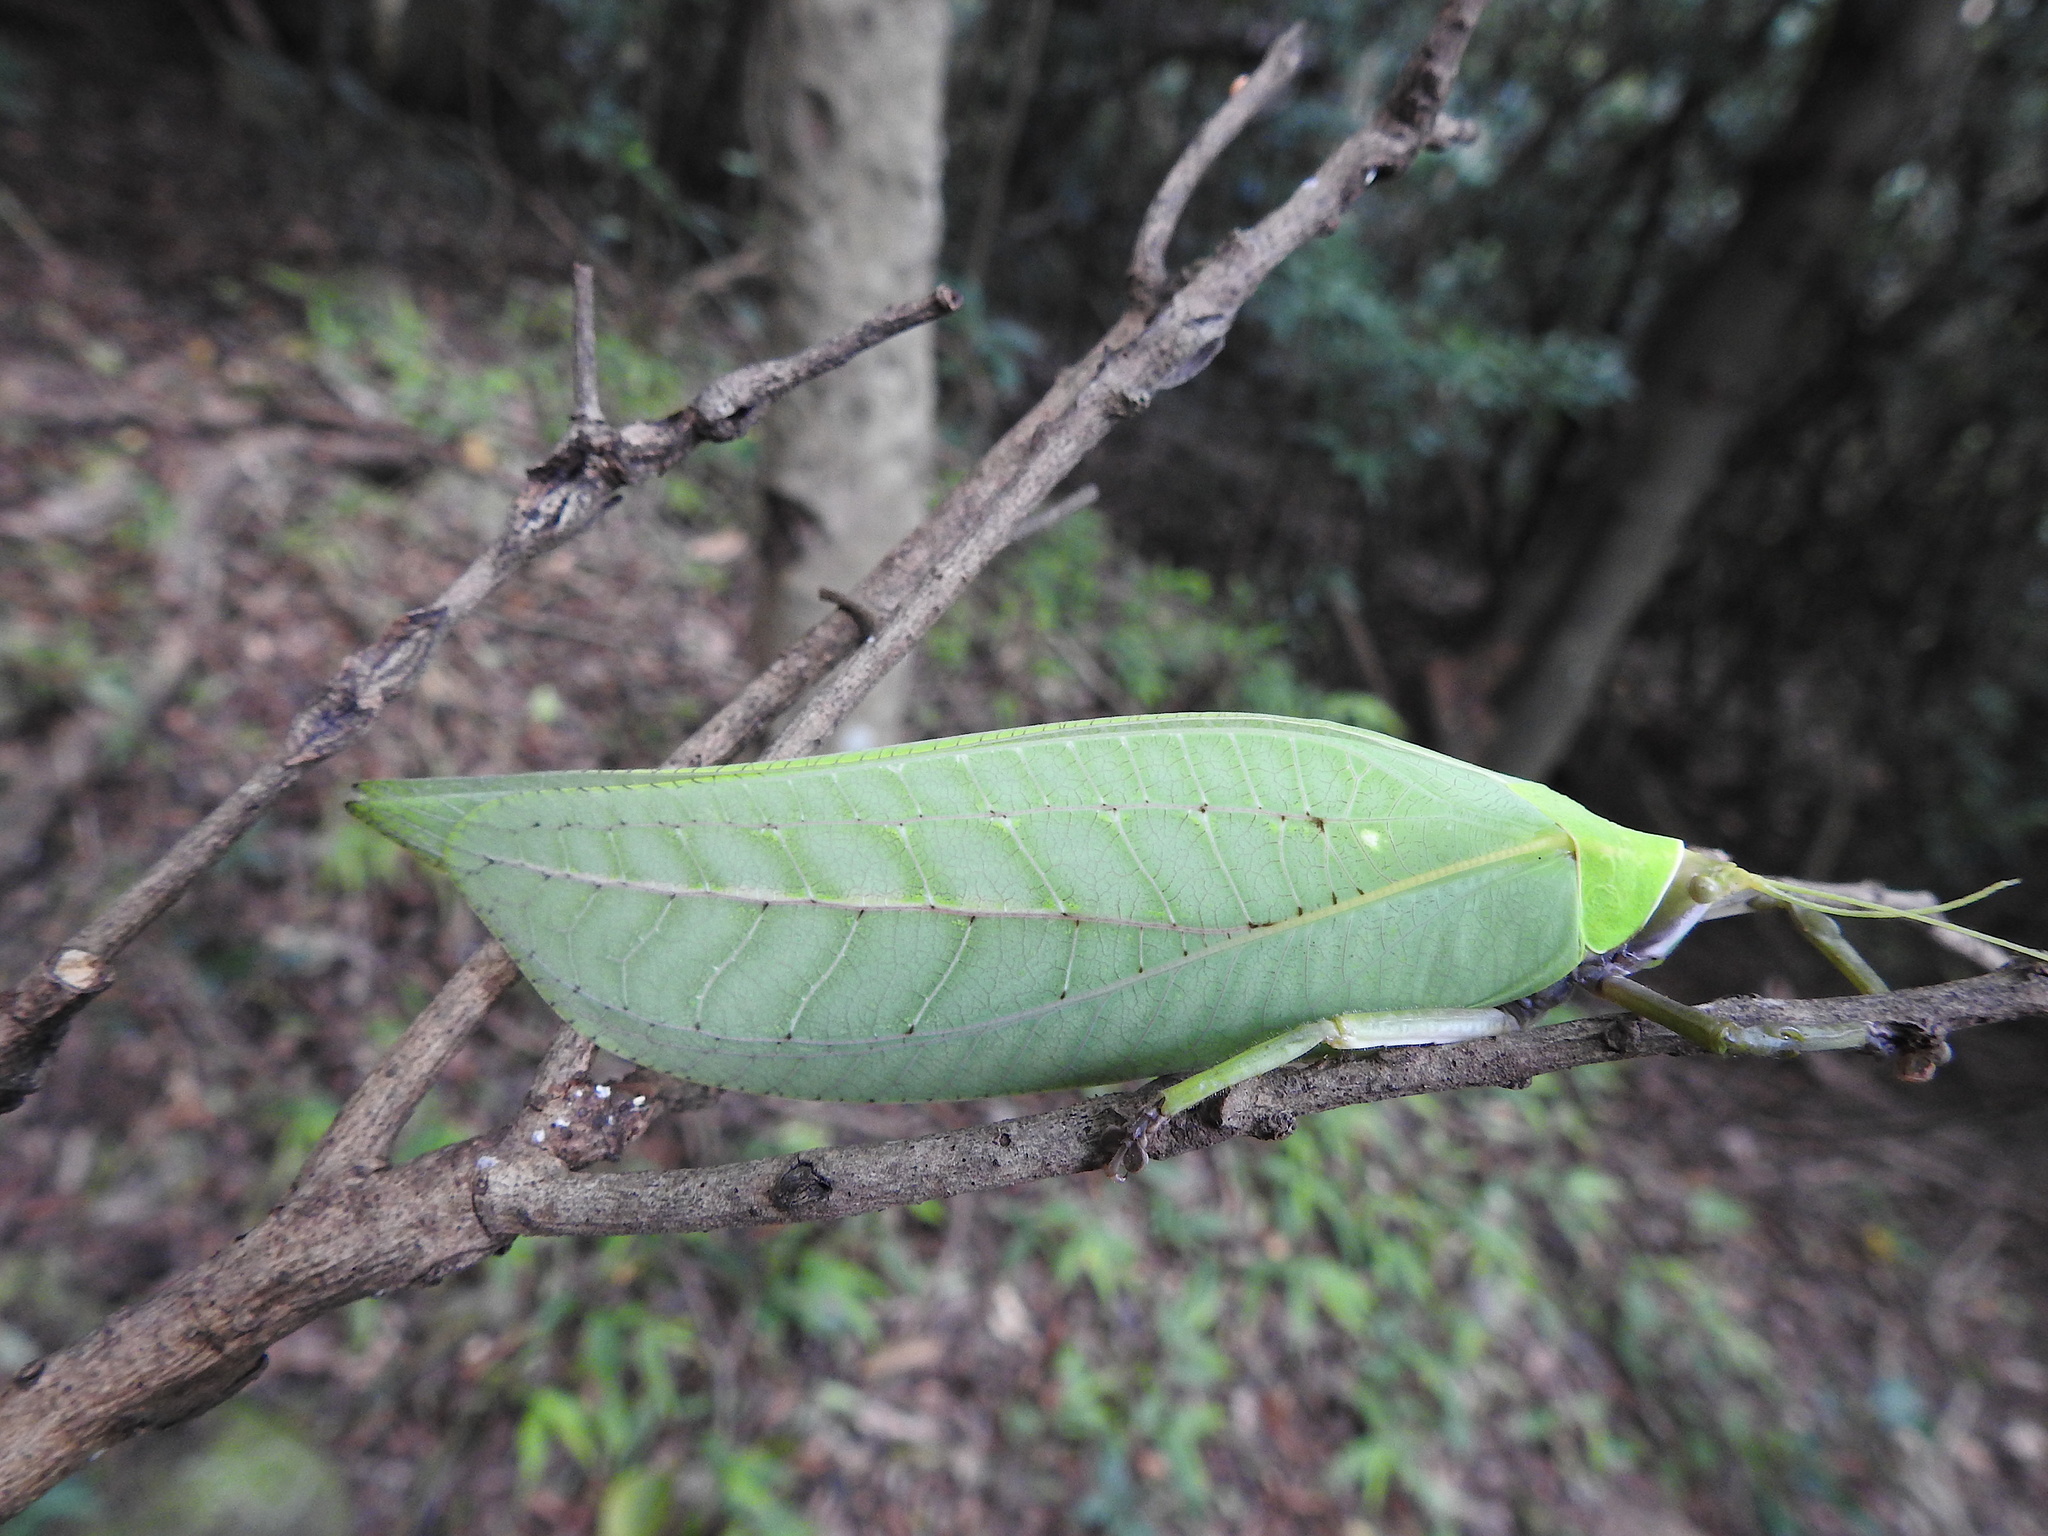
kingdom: Animalia
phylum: Arthropoda
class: Insecta
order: Orthoptera
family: Tettigoniidae
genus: Onomarchus
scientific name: Onomarchus uninotatus
